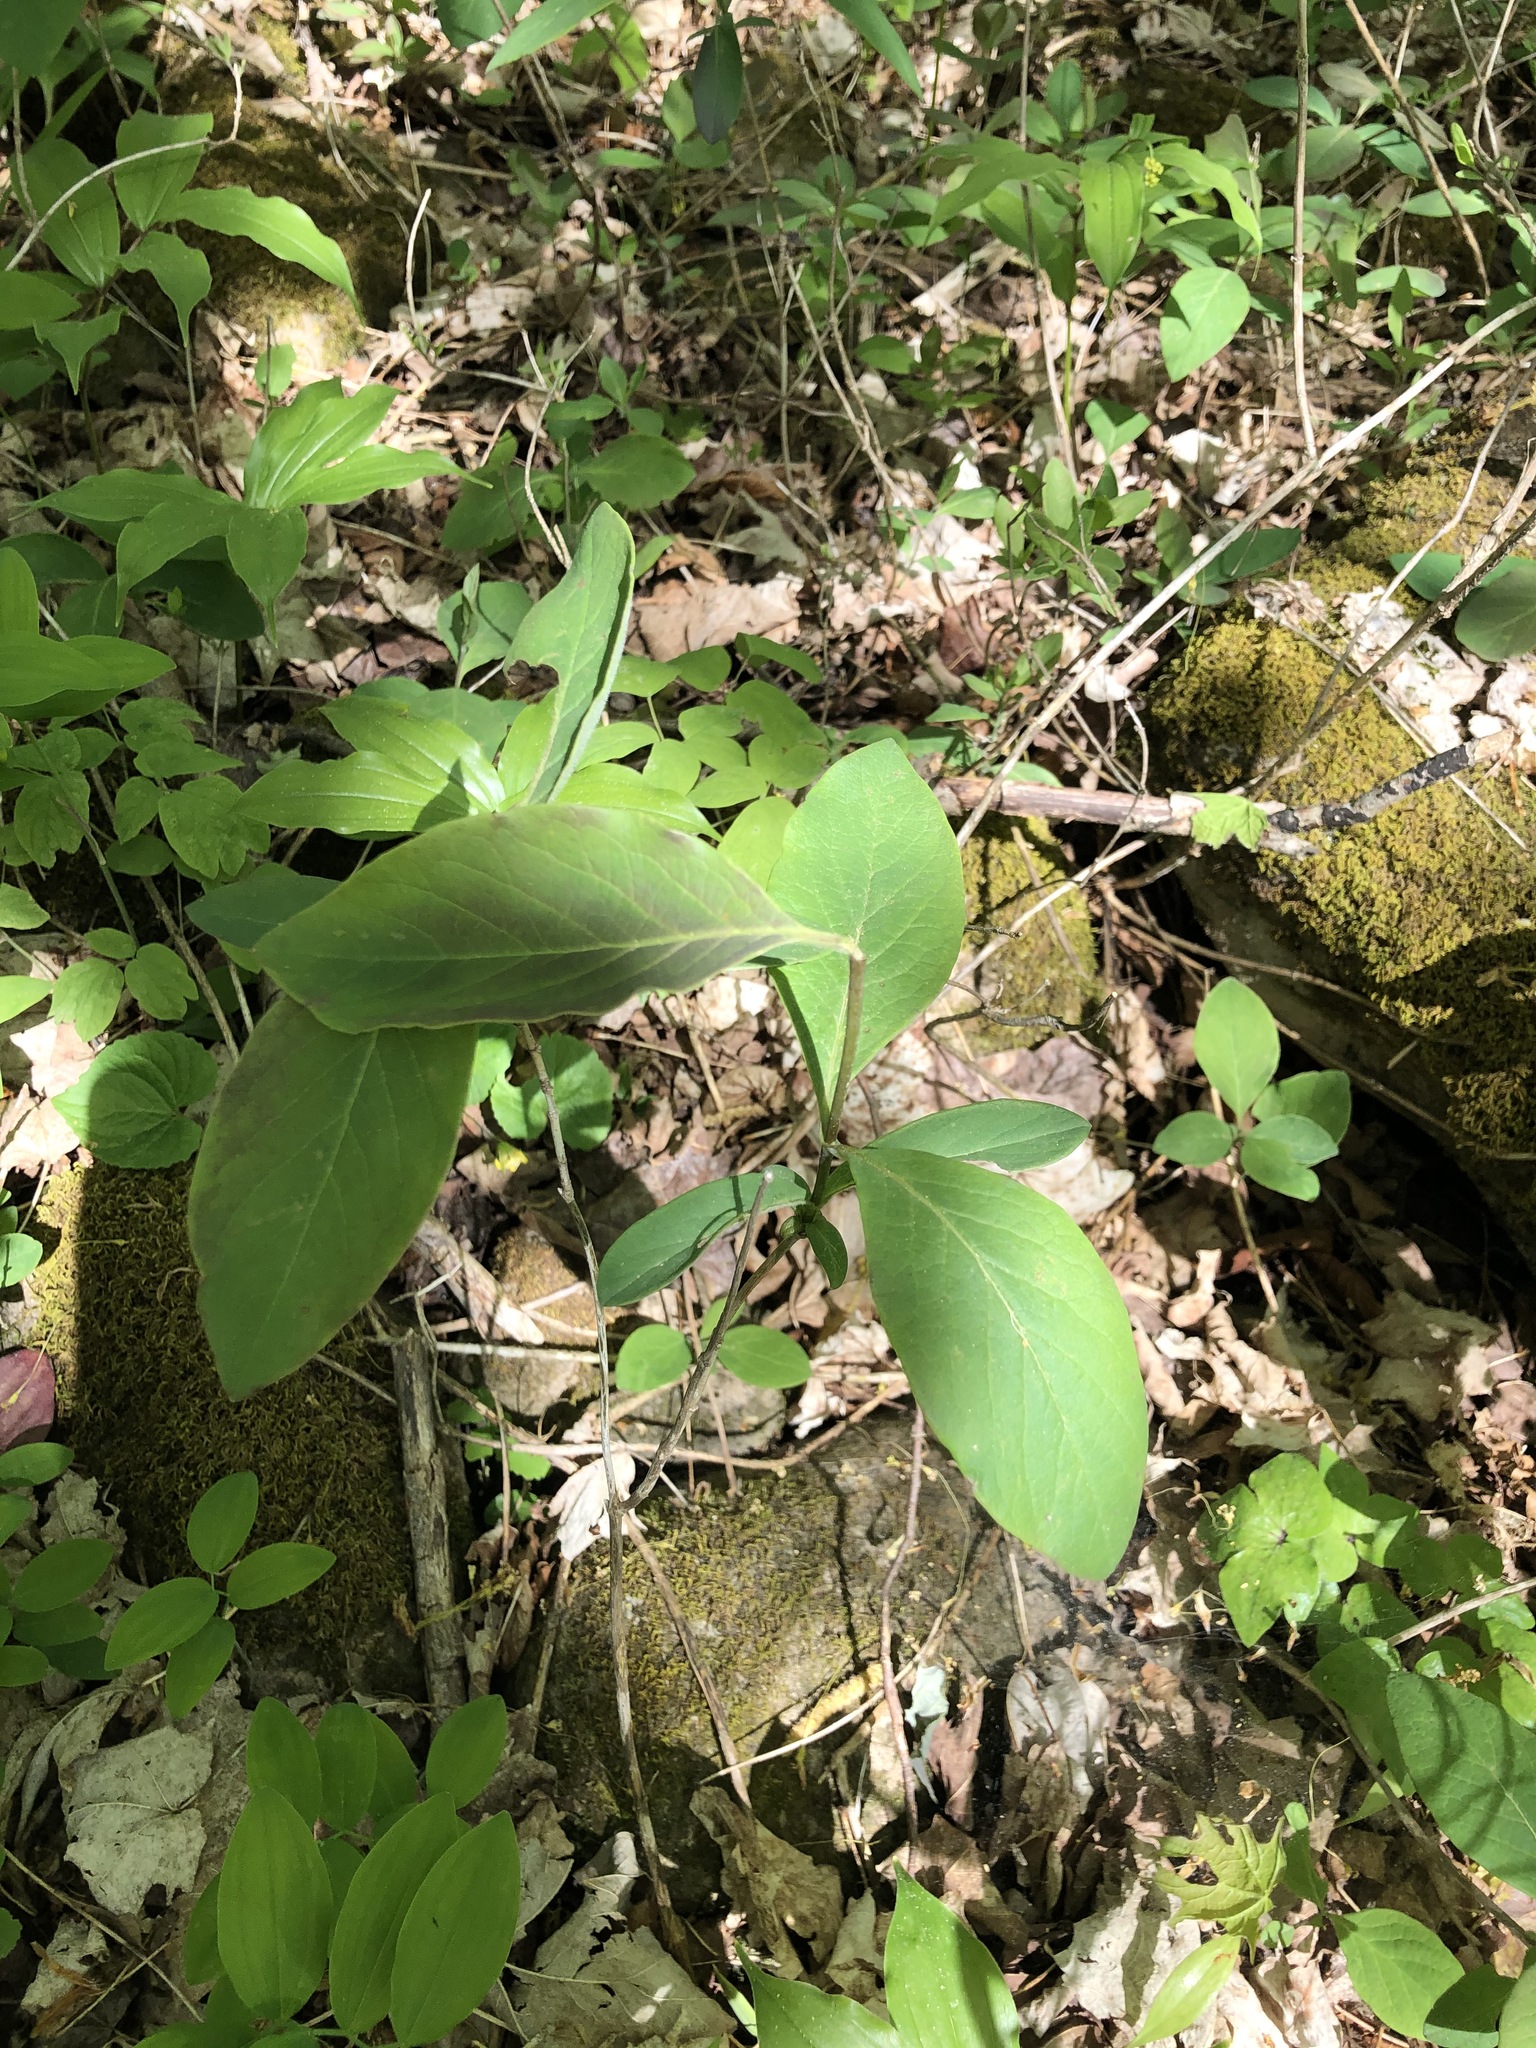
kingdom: Plantae
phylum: Tracheophyta
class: Magnoliopsida
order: Dipsacales
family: Caprifoliaceae
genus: Lonicera
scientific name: Lonicera dioica
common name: Limber honeysuckle
